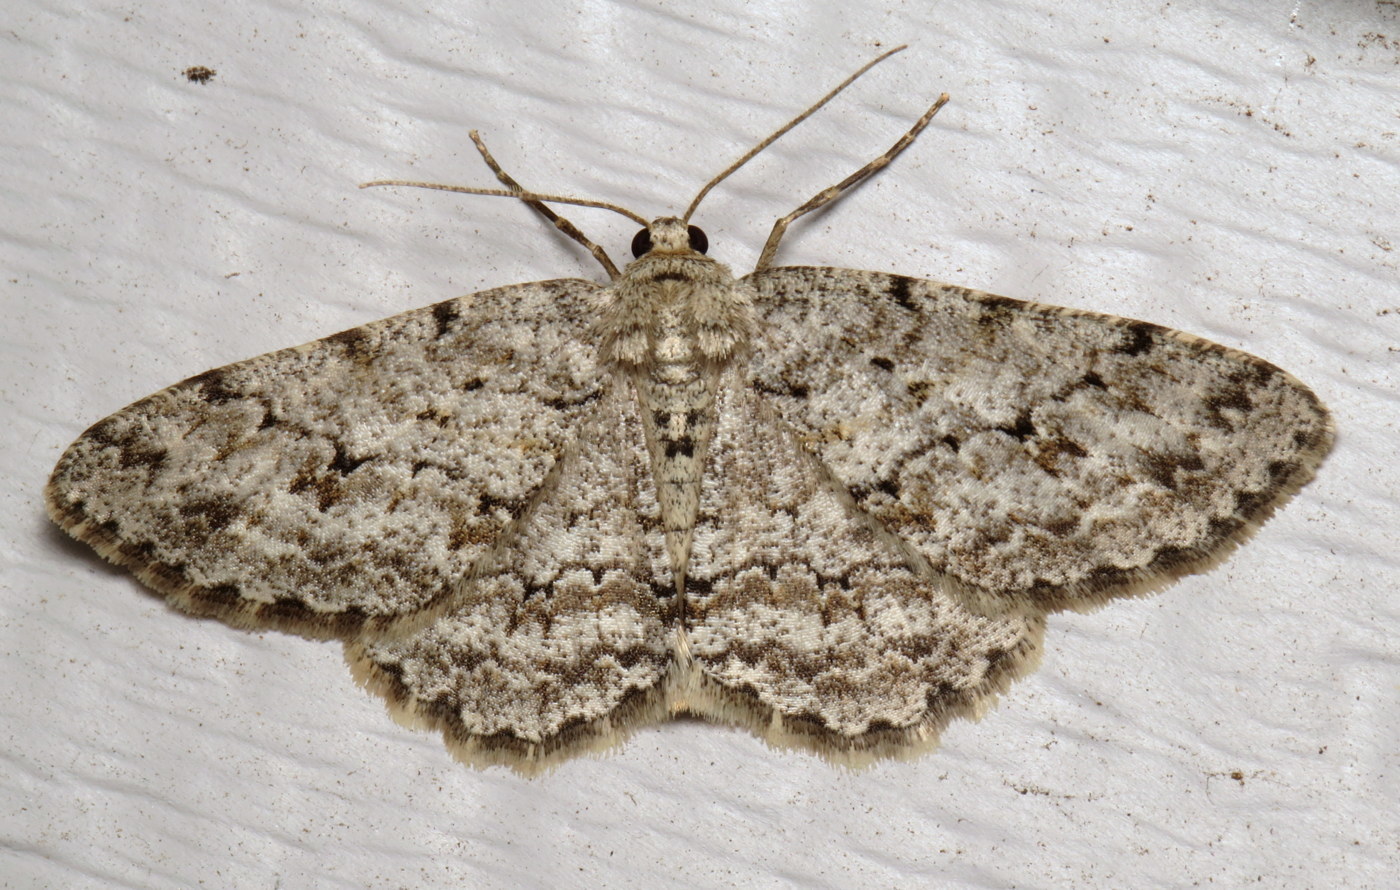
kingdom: Animalia
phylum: Arthropoda
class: Insecta
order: Lepidoptera
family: Geometridae
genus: Ectropis
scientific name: Ectropis crepuscularia
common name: Engrailed
